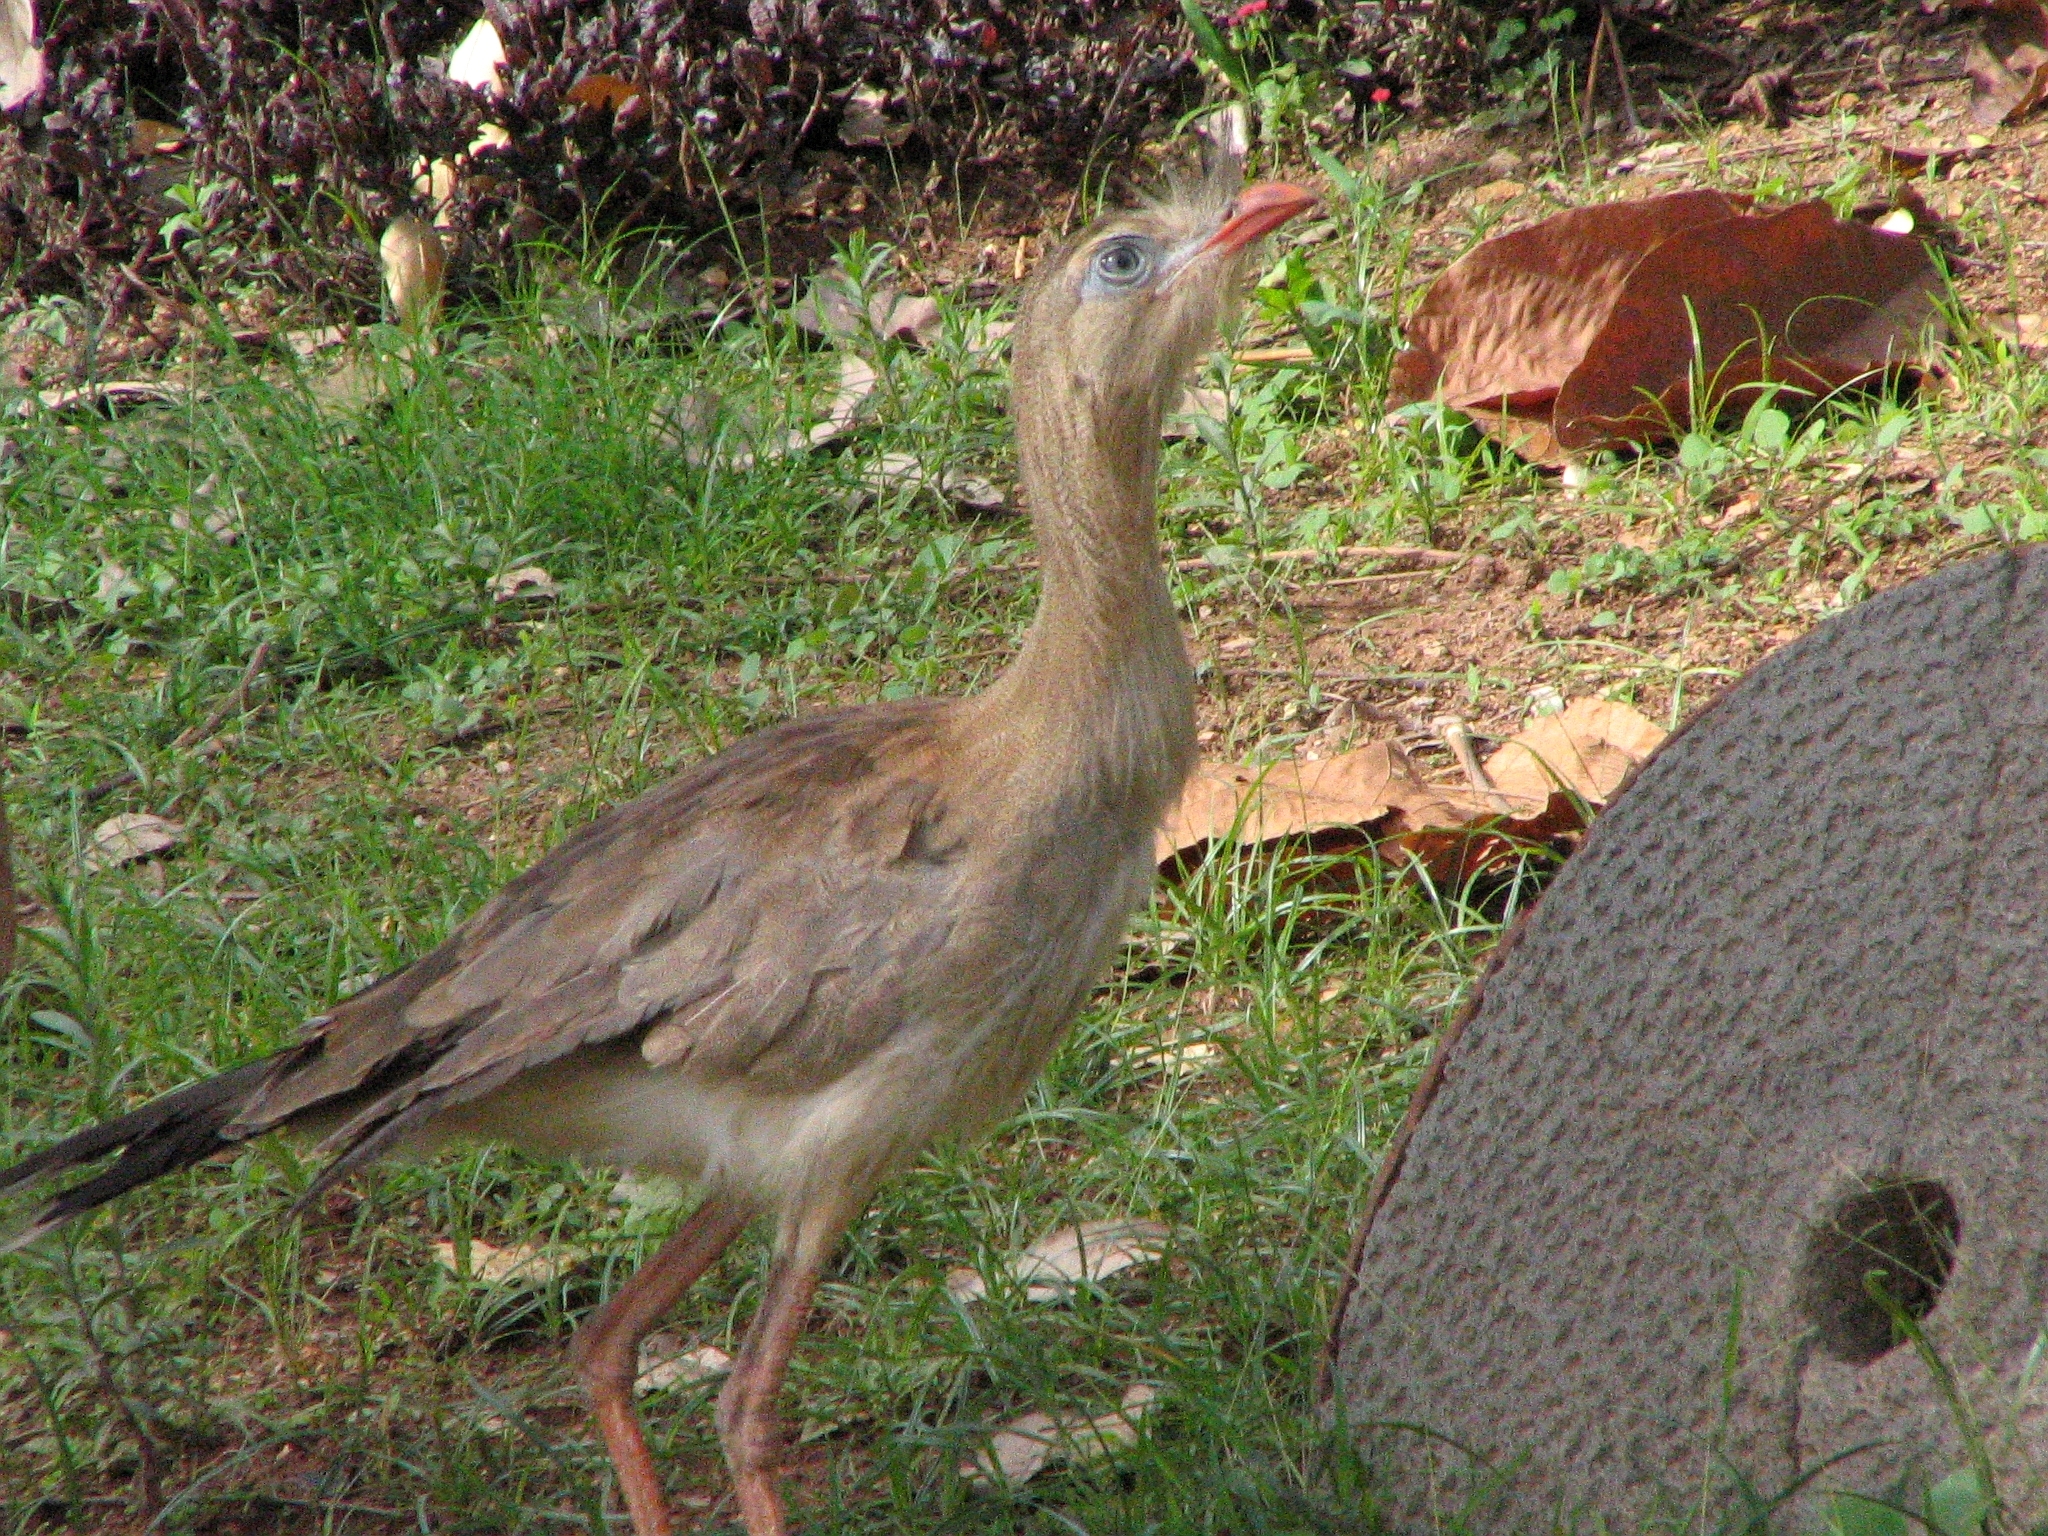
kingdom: Animalia
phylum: Chordata
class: Aves
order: Cariamiformes
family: Cariamidae
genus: Cariama
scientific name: Cariama cristata
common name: Red-legged seriema
